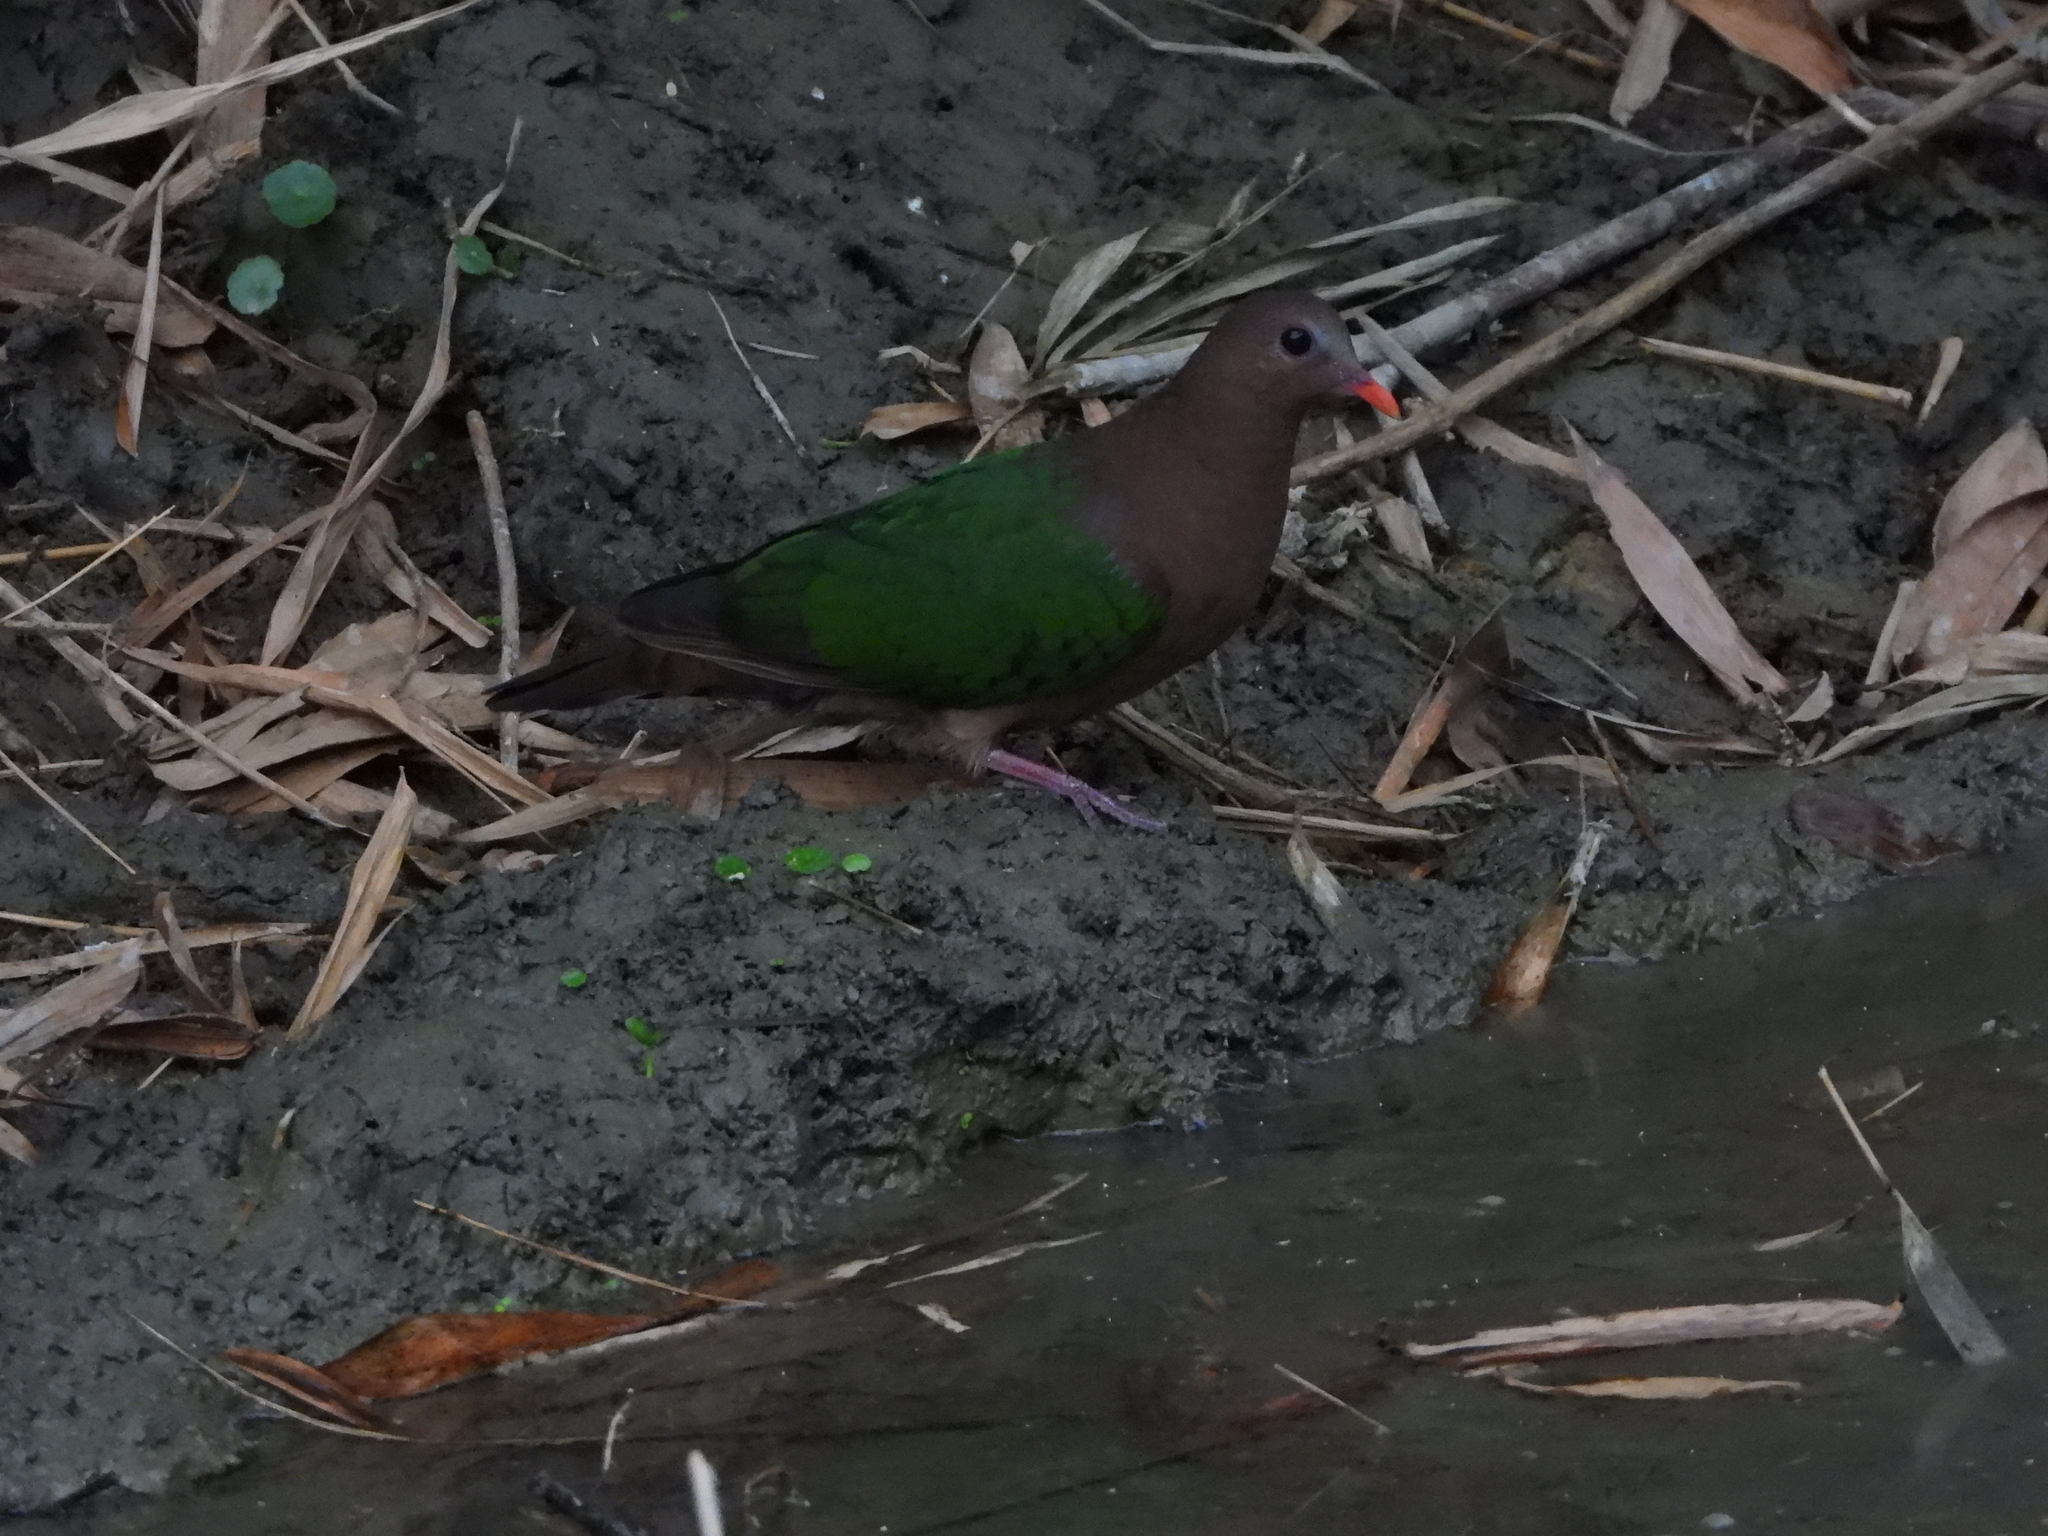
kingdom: Animalia
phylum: Chordata
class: Aves
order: Columbiformes
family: Columbidae
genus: Chalcophaps
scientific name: Chalcophaps indica
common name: Common emerald dove
